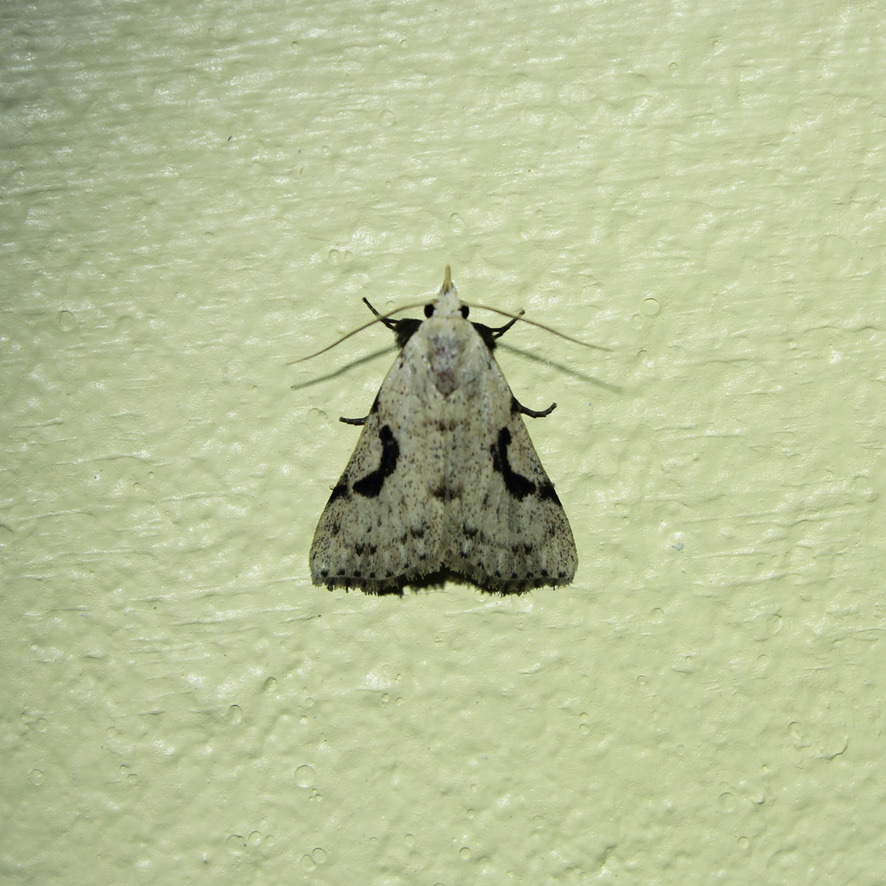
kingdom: Animalia
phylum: Arthropoda
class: Insecta
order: Lepidoptera
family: Erebidae
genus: Acanthermia
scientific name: Acanthermia concatenalis
